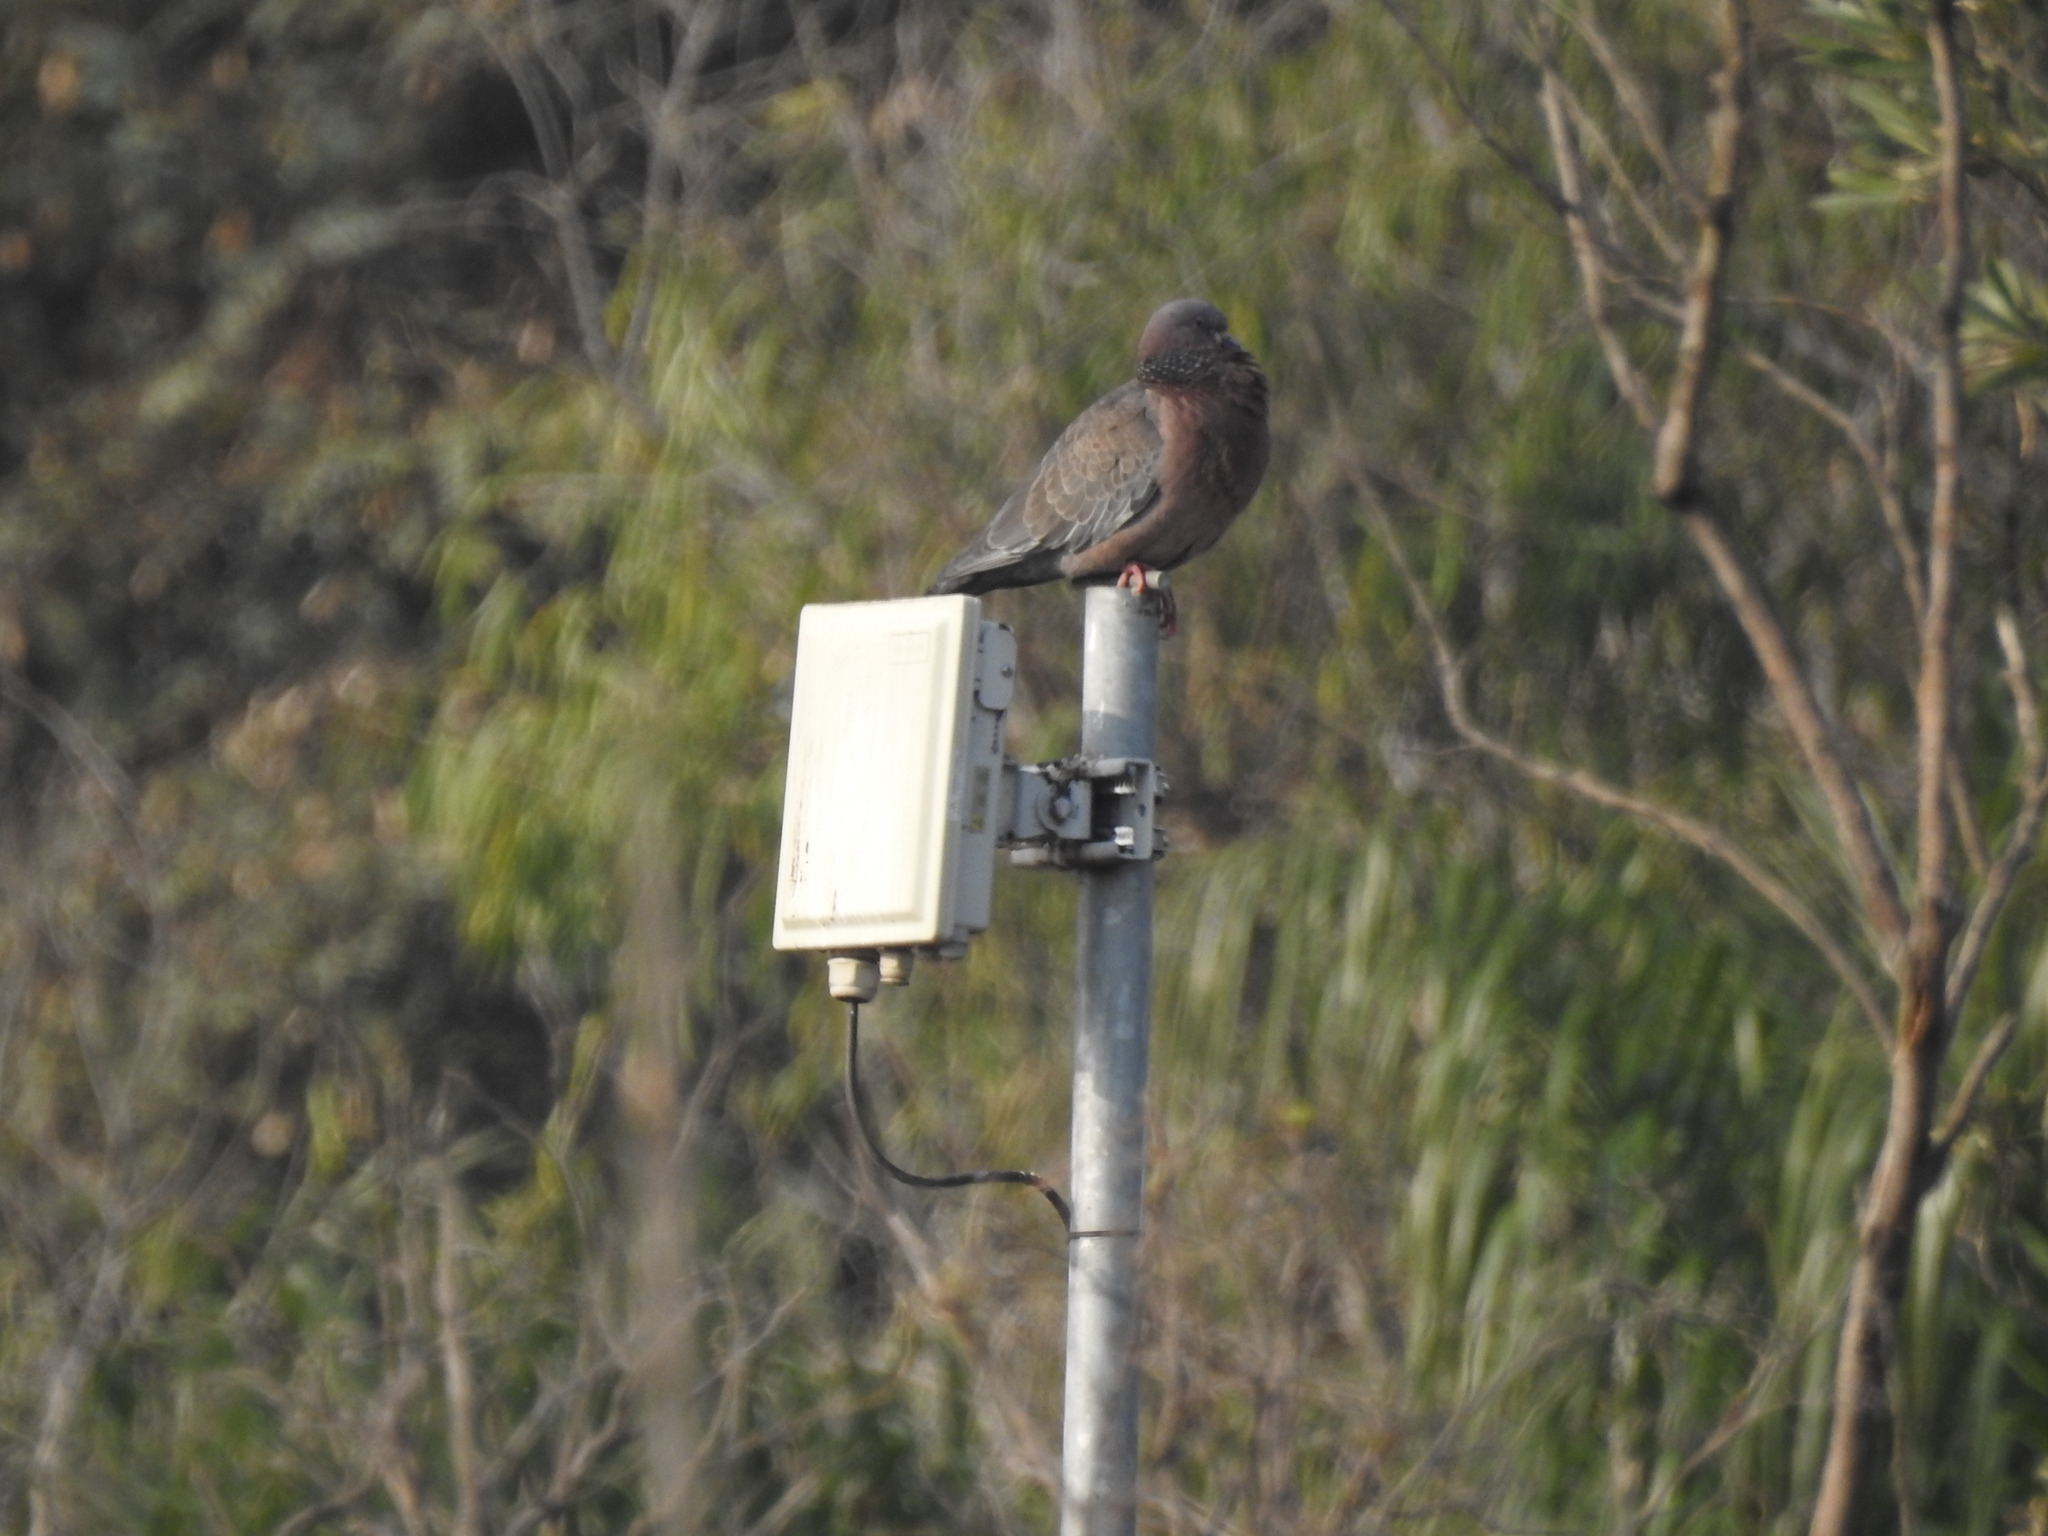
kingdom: Animalia
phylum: Chordata
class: Aves
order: Columbiformes
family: Columbidae
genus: Patagioenas
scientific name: Patagioenas picazuro
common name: Picazuro pigeon
